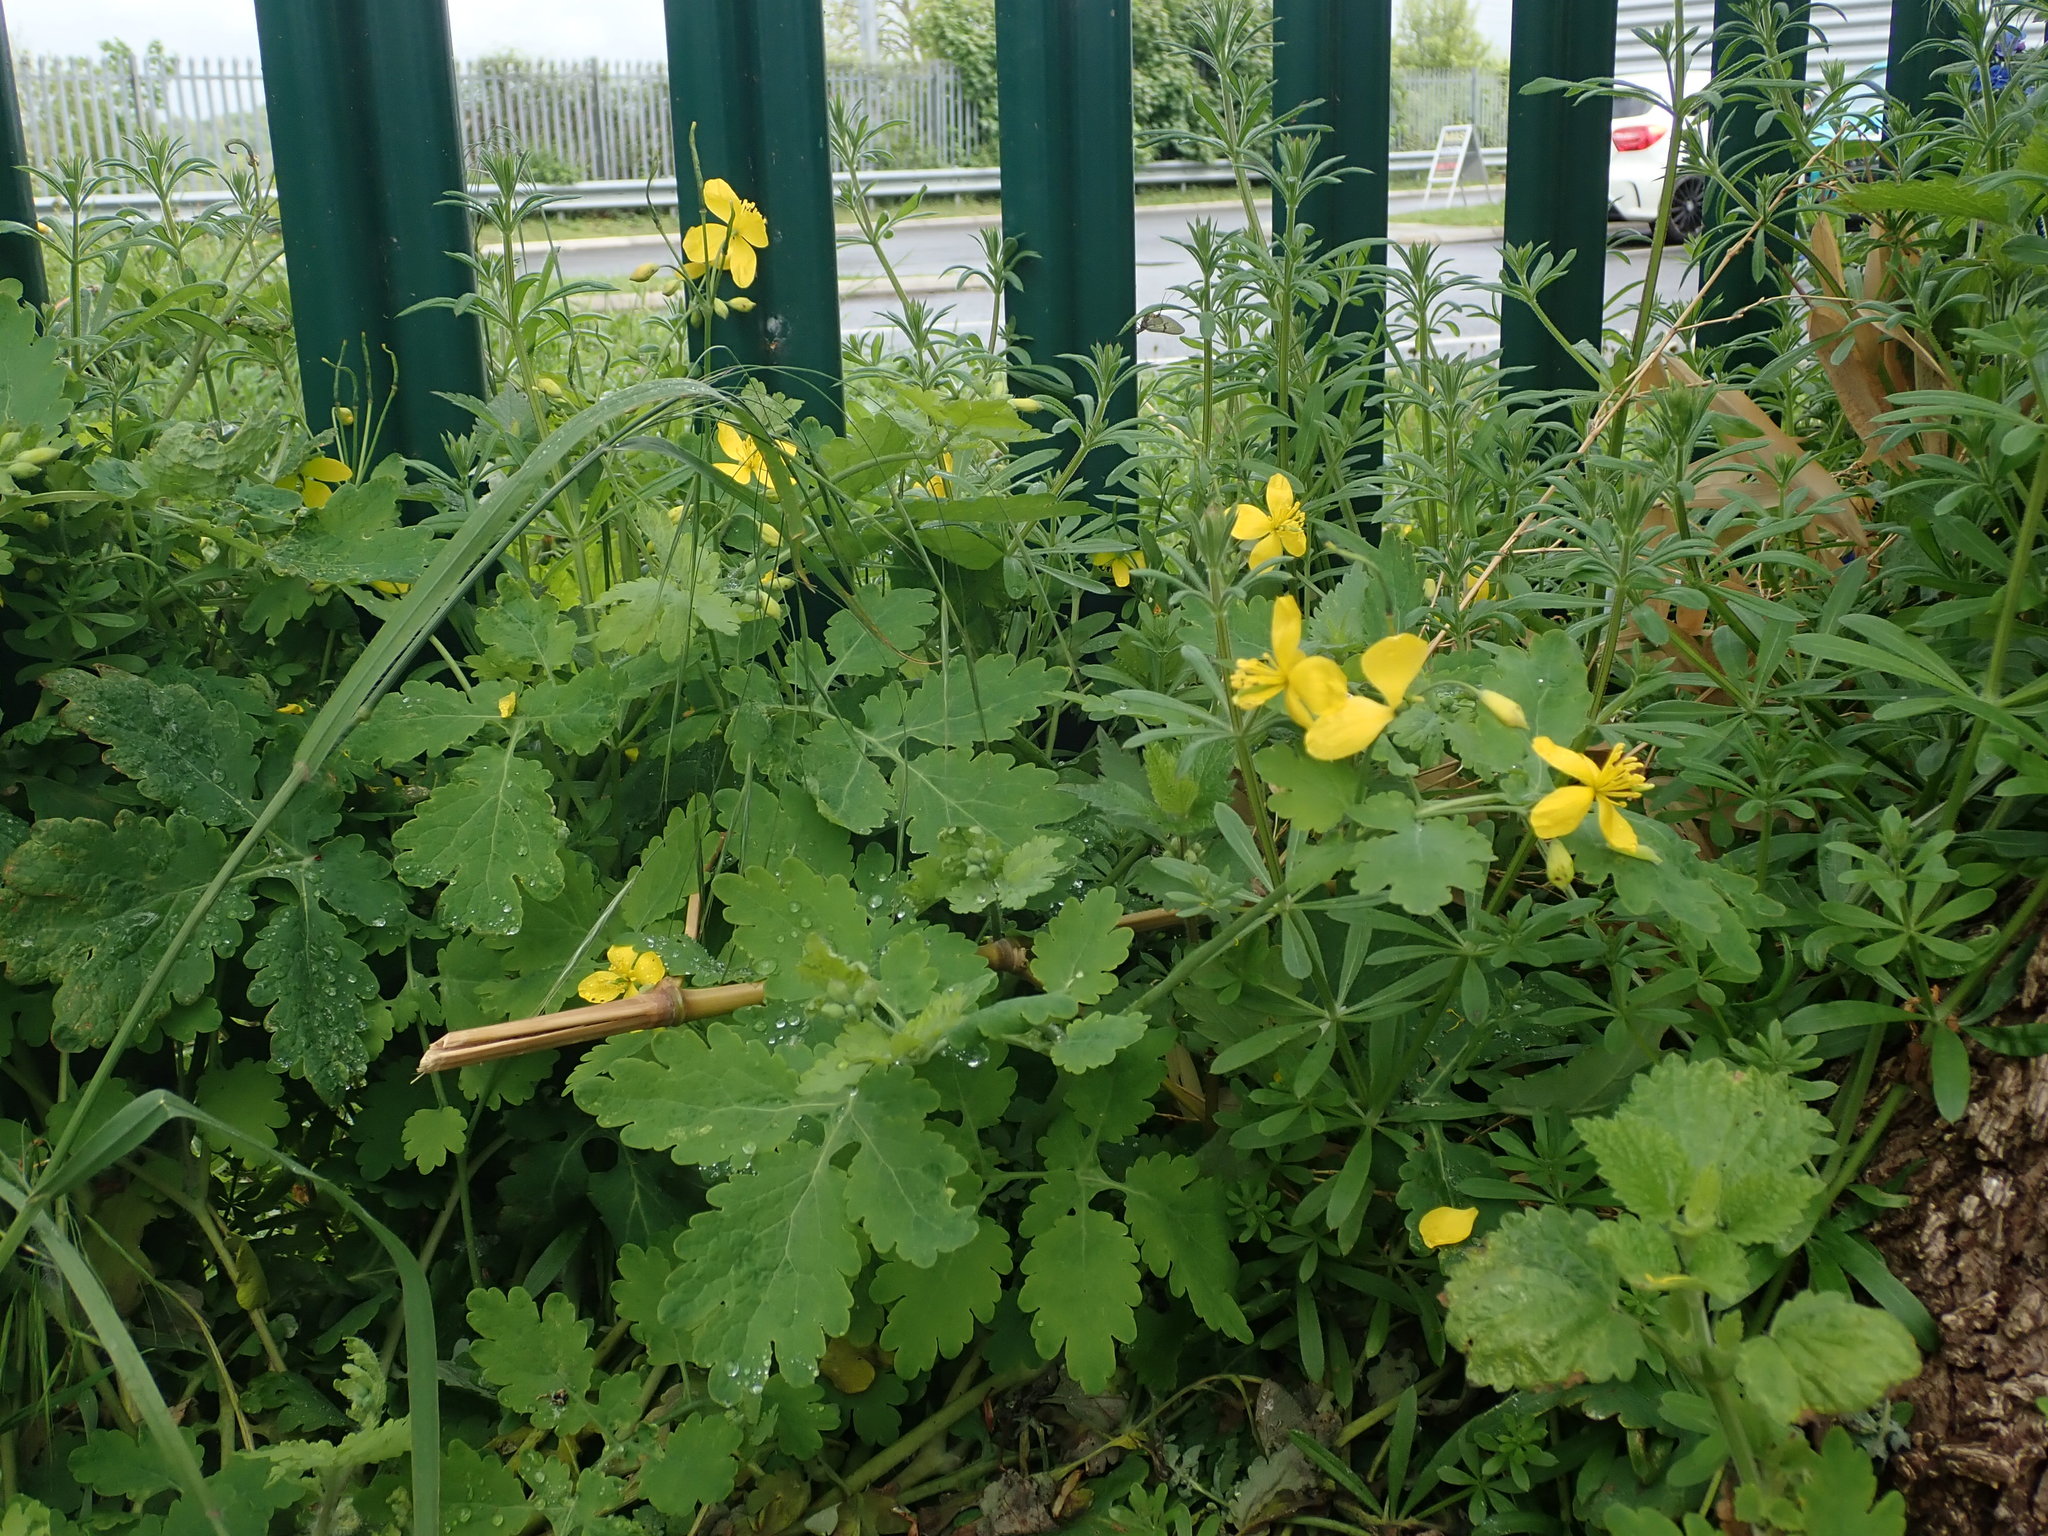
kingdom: Plantae
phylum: Tracheophyta
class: Magnoliopsida
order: Ranunculales
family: Papaveraceae
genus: Chelidonium
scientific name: Chelidonium majus
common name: Greater celandine
